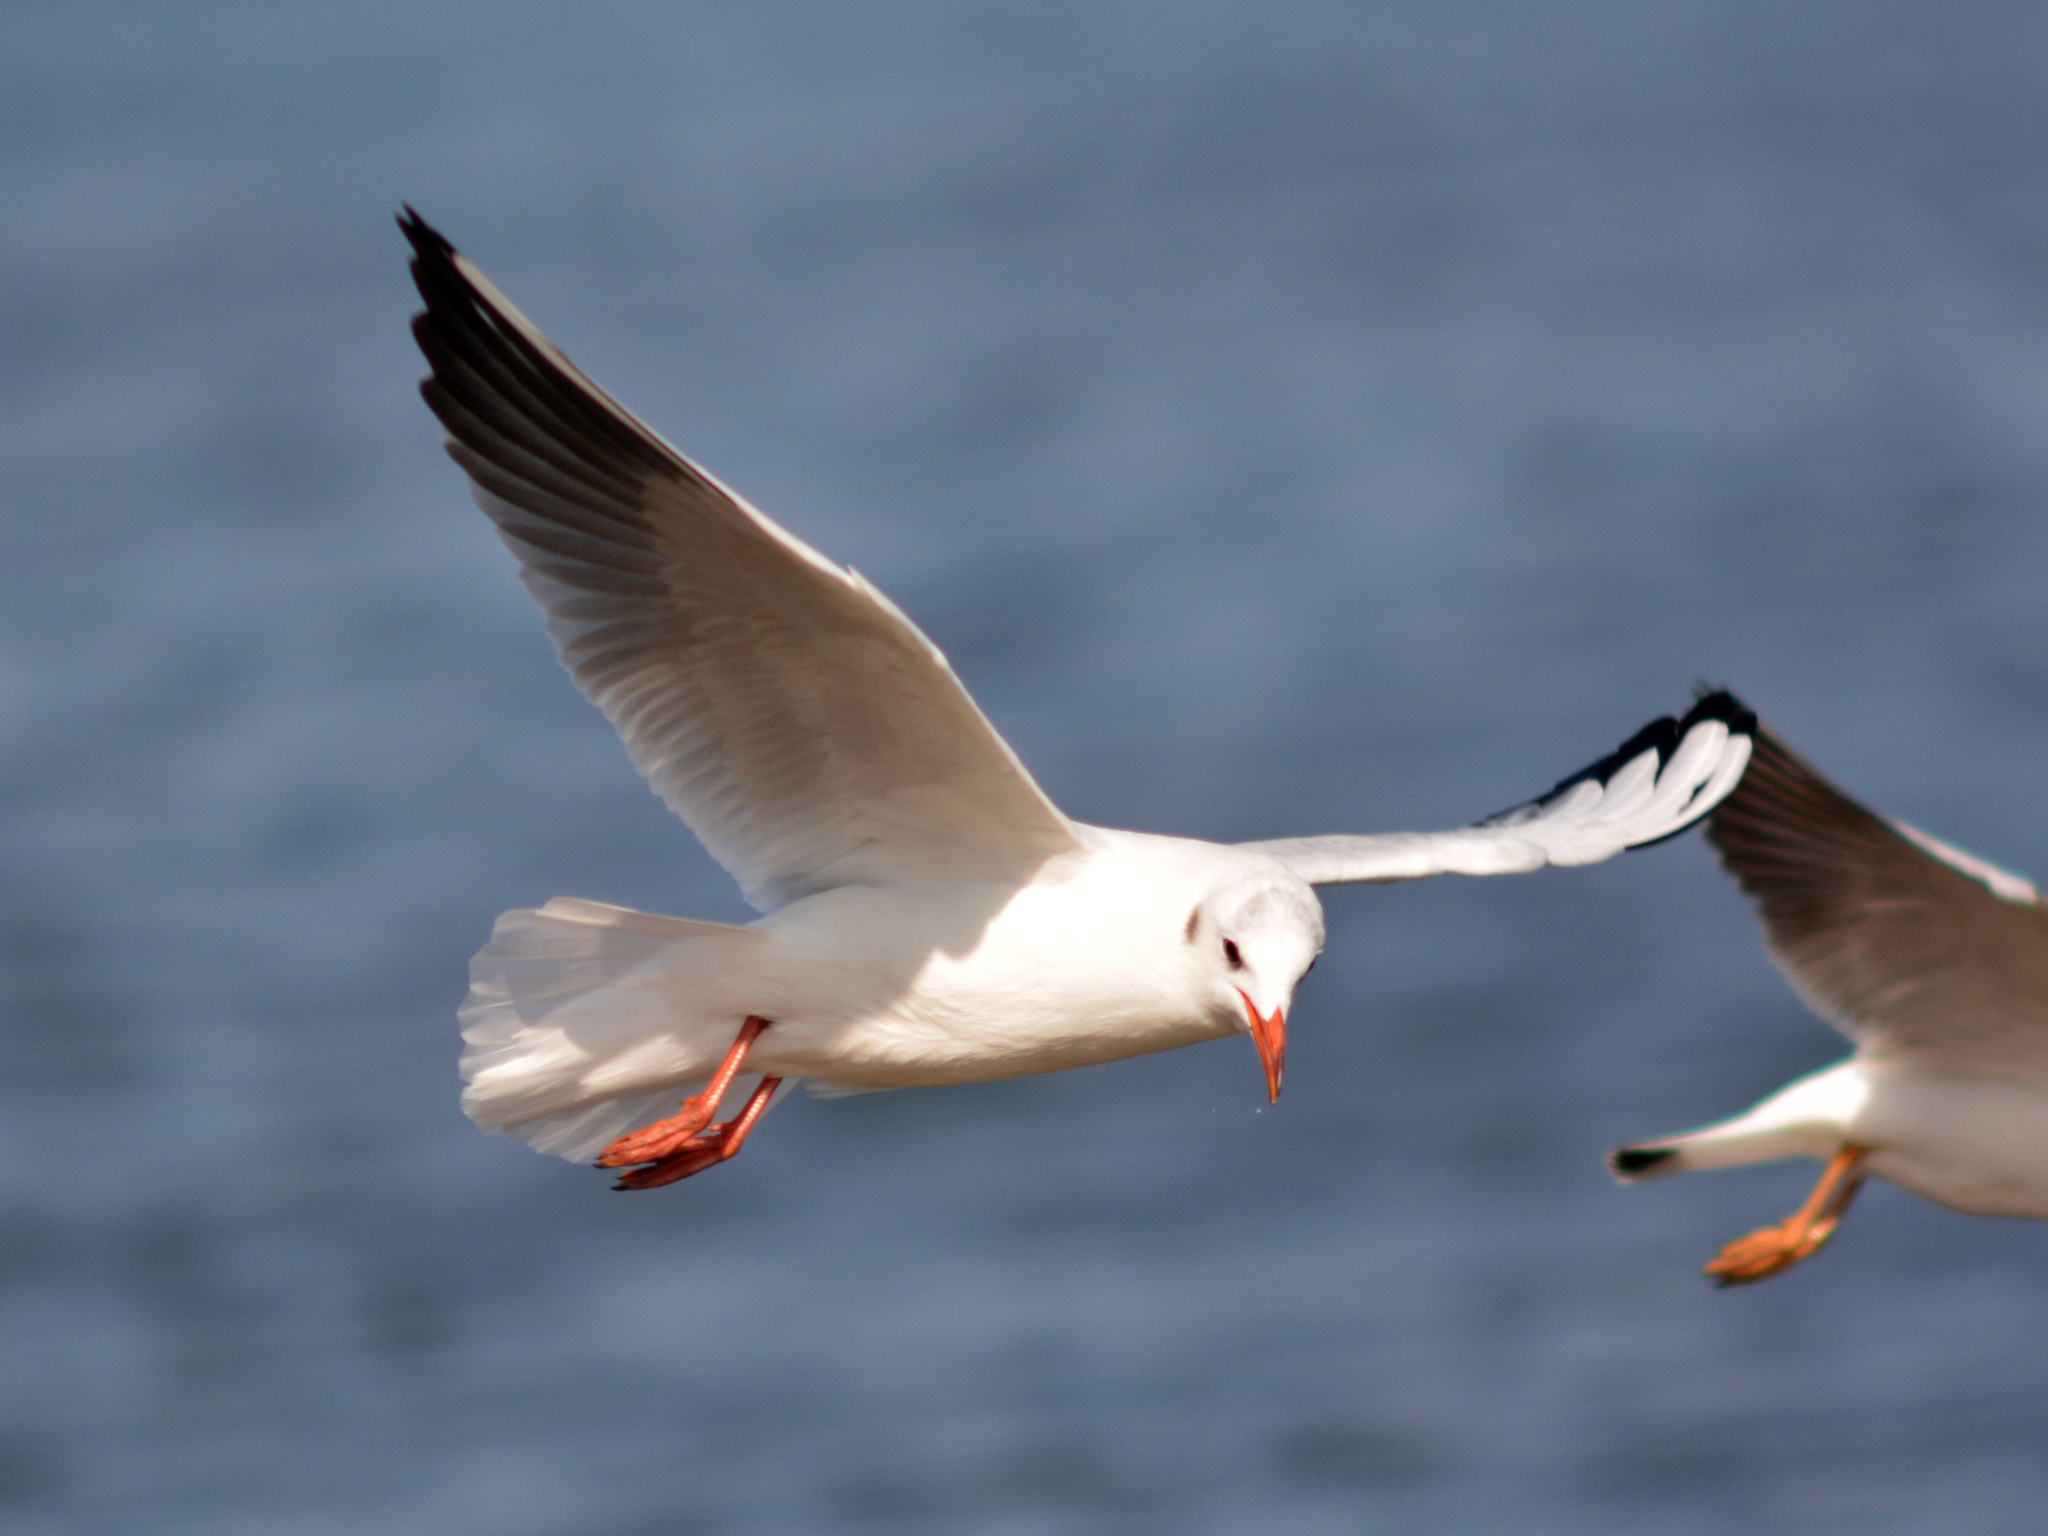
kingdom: Animalia
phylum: Chordata
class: Aves
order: Charadriiformes
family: Laridae
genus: Chroicocephalus
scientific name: Chroicocephalus ridibundus
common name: Black-headed gull
